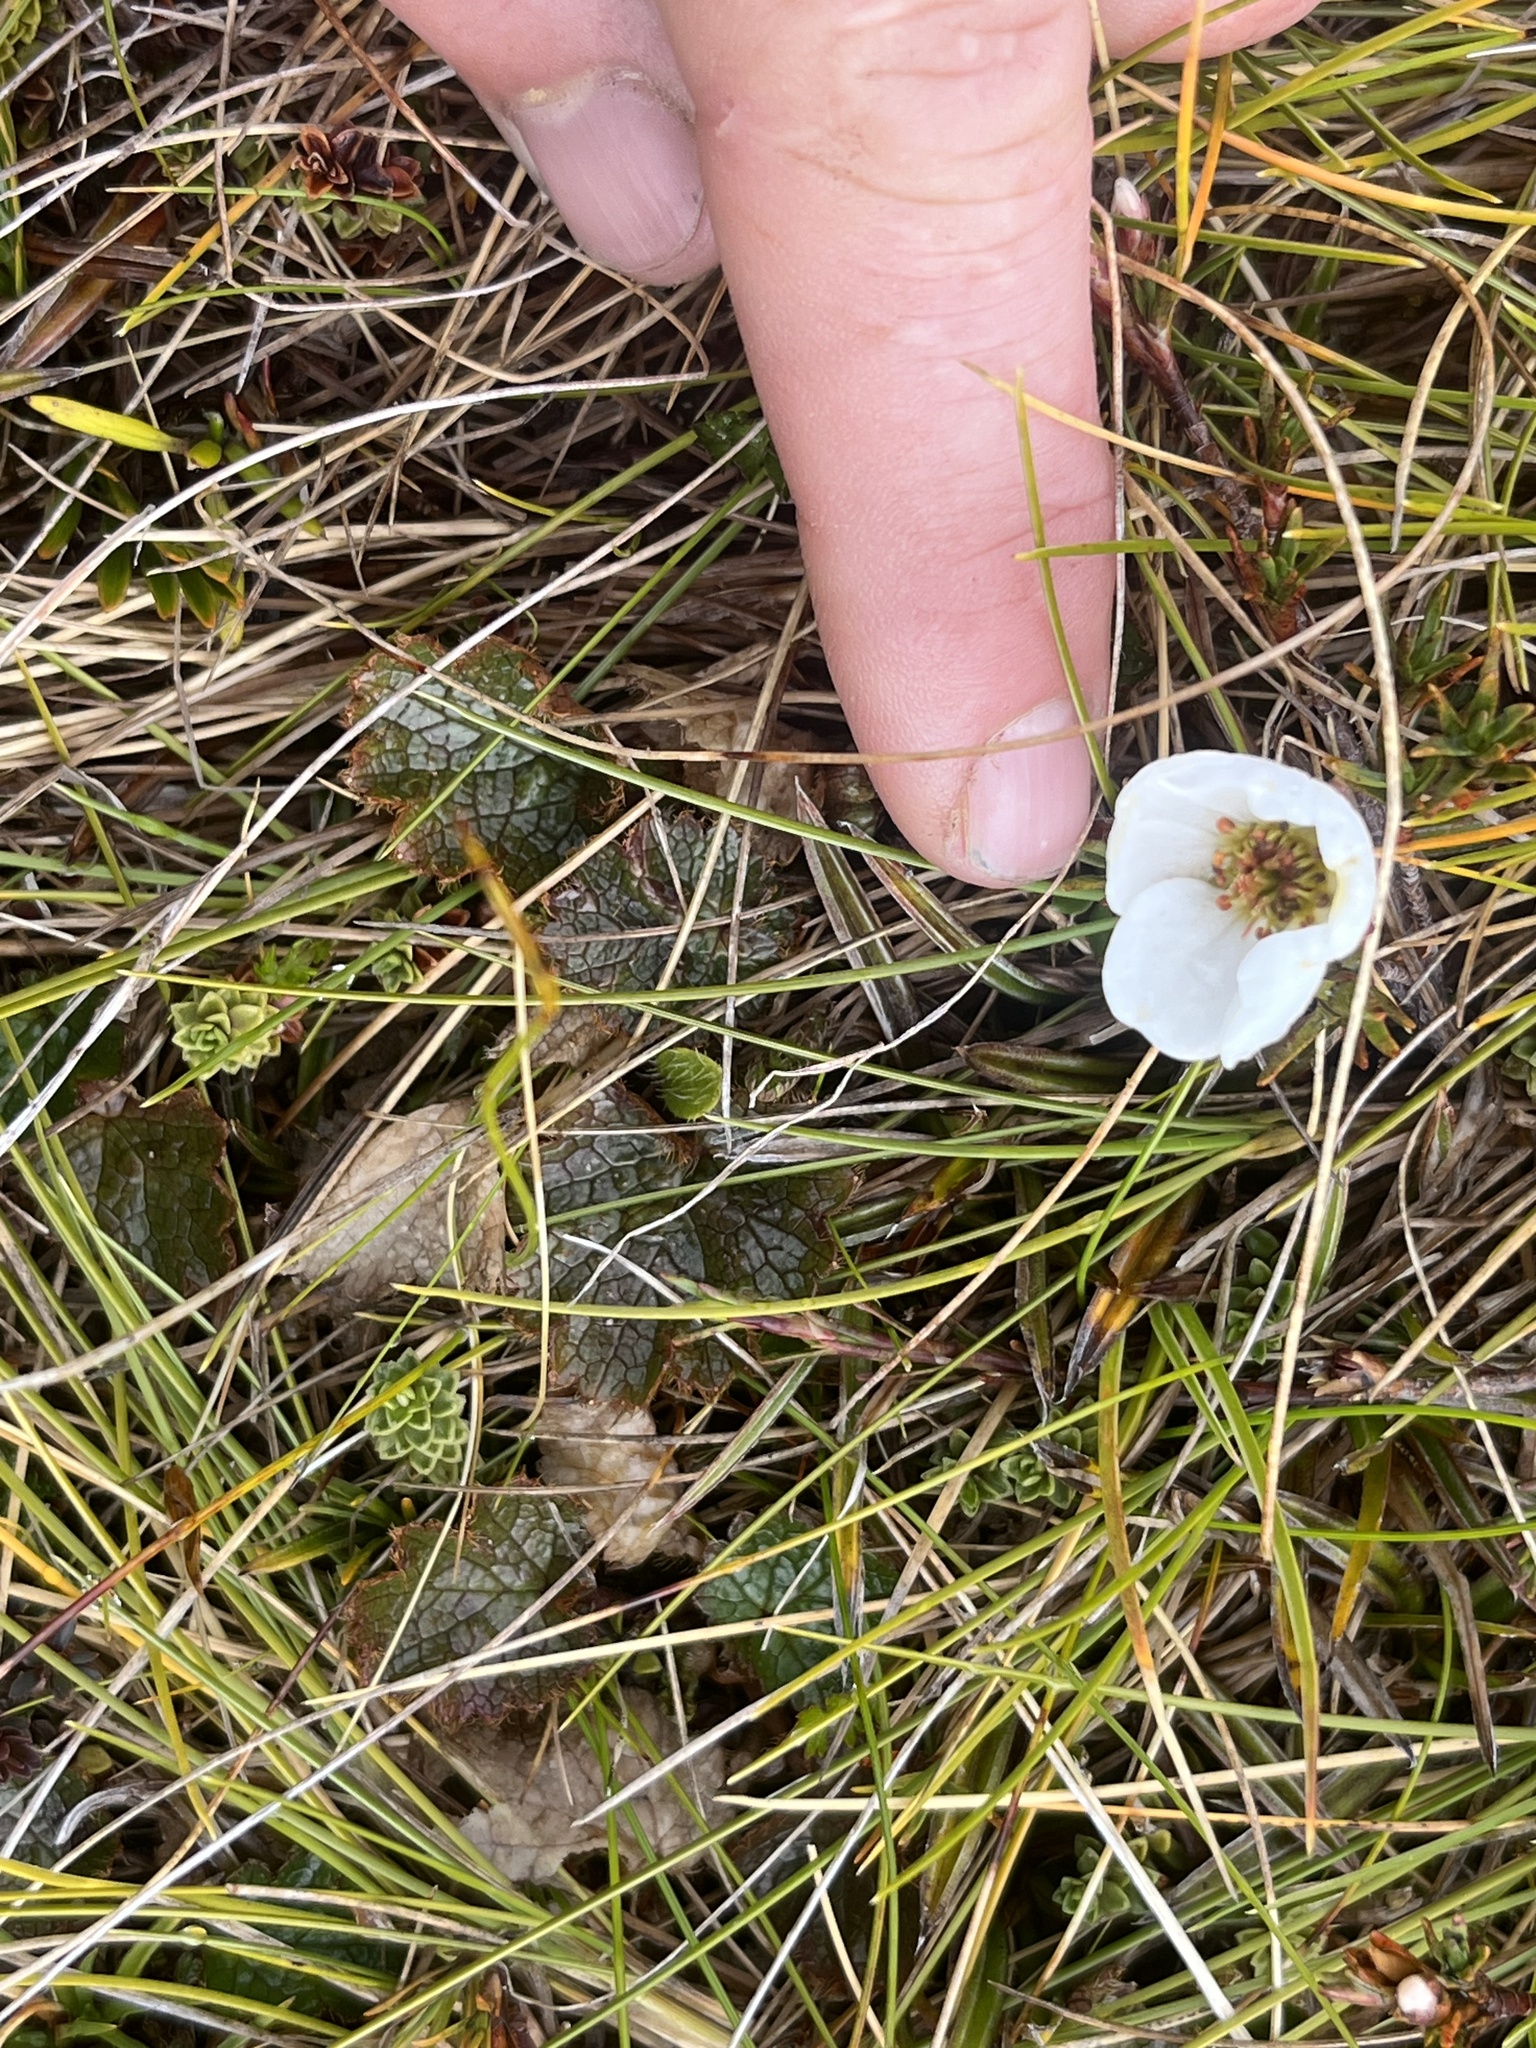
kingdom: Plantae
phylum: Tracheophyta
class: Magnoliopsida
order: Rosales
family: Rosaceae
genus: Geum
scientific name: Geum uniflorum
